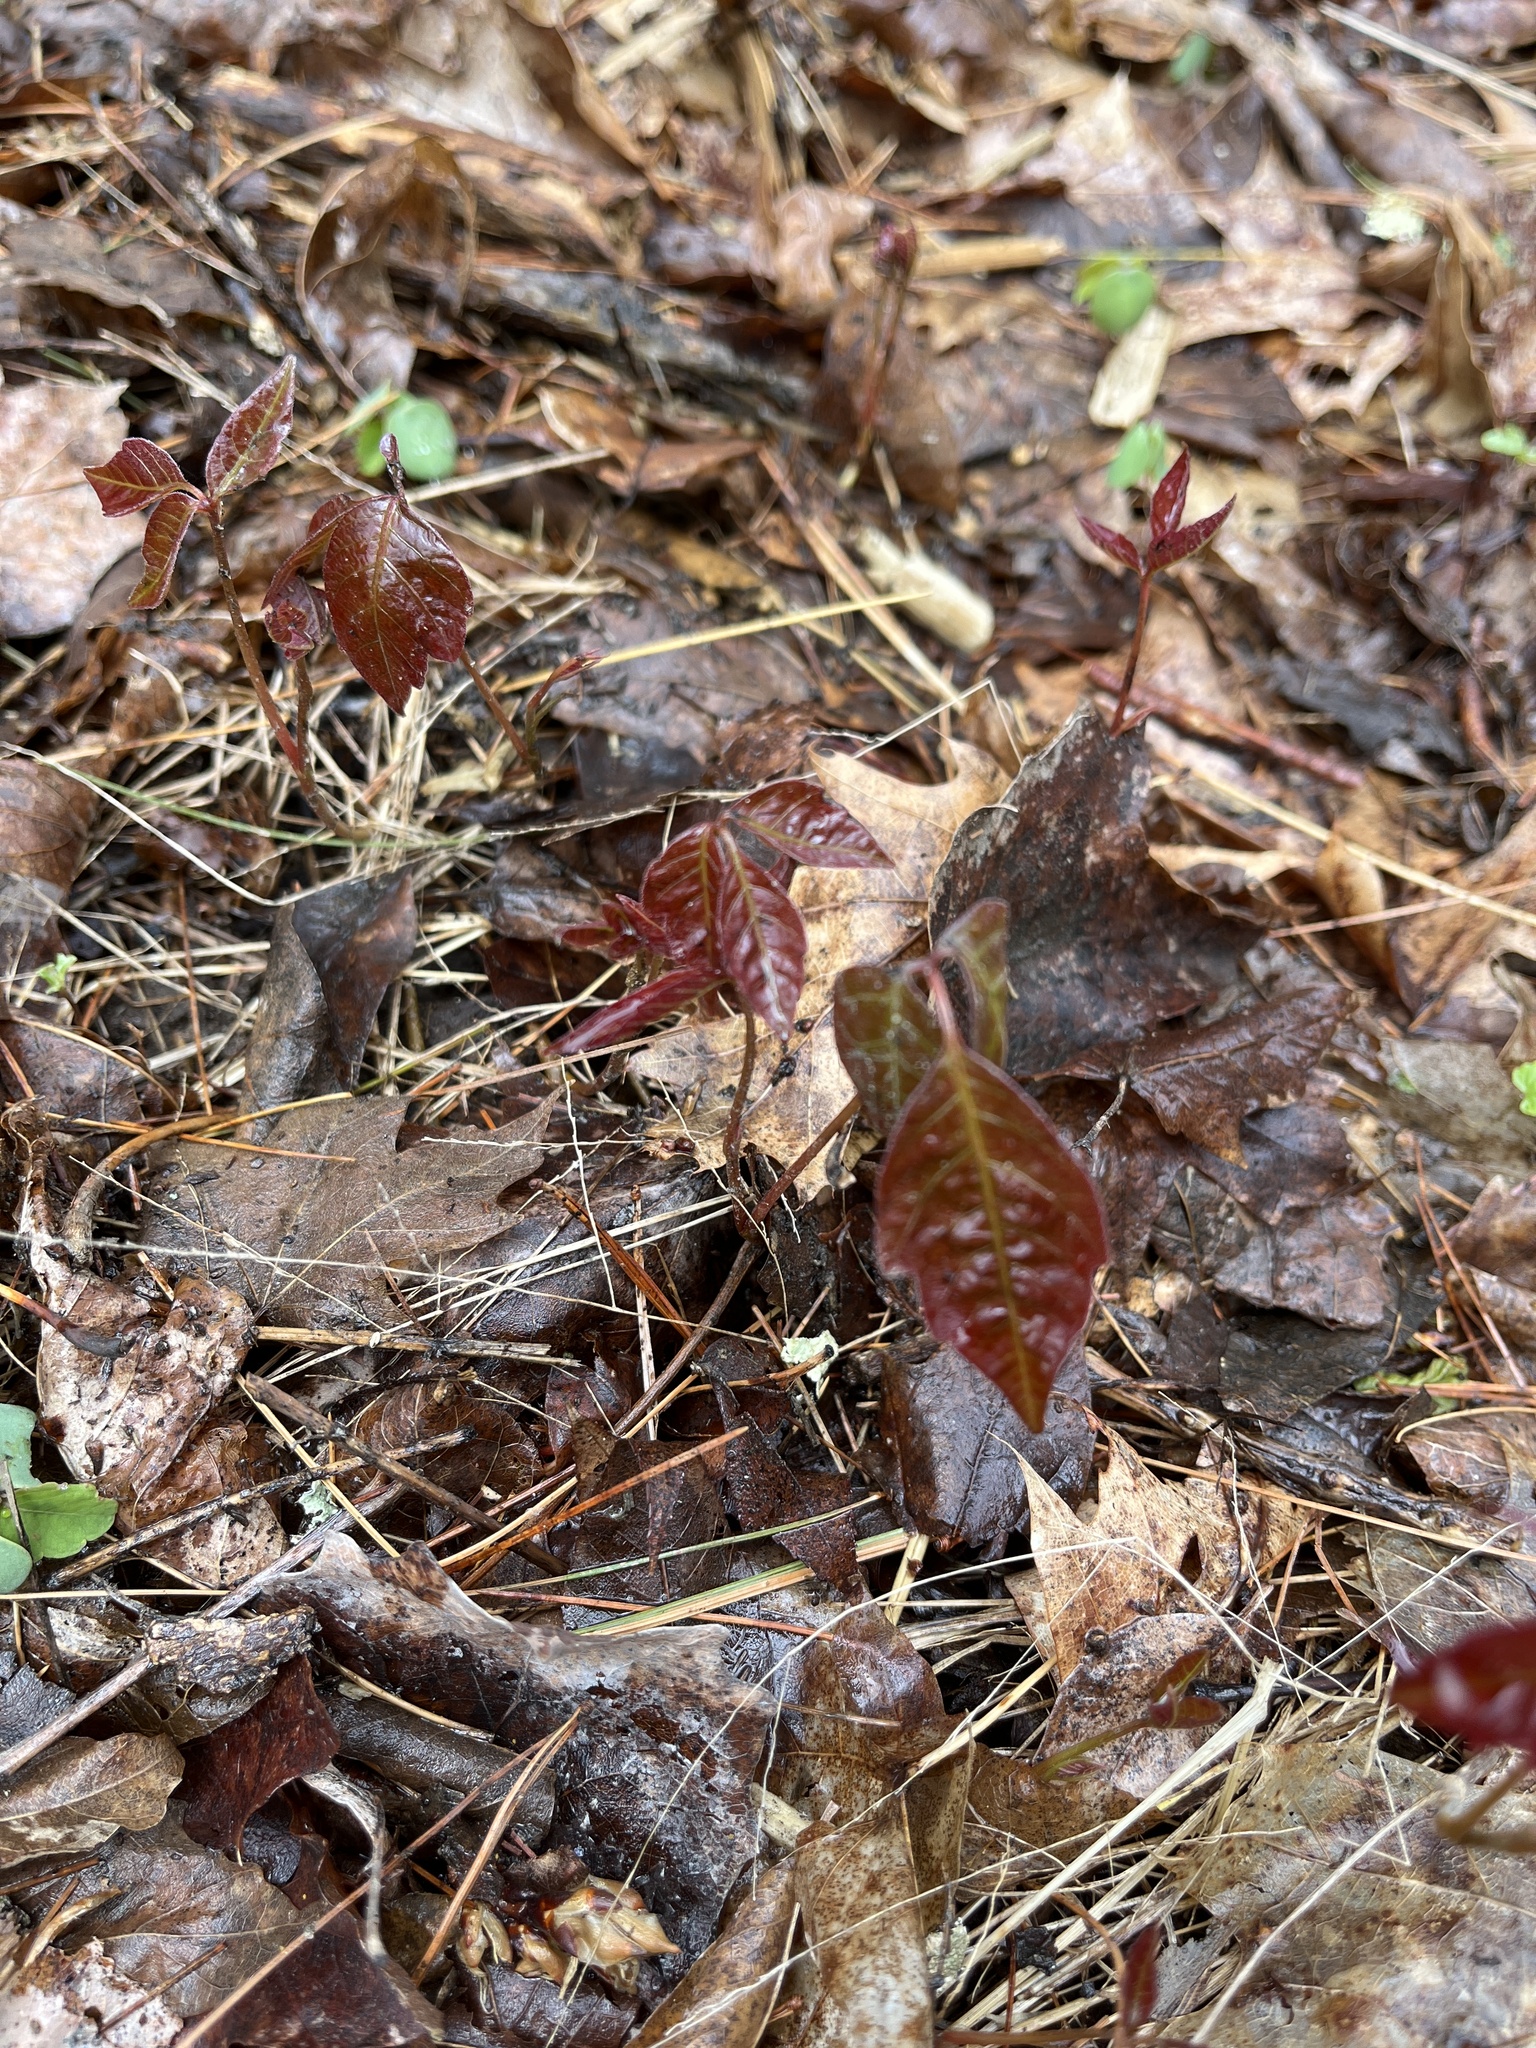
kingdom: Plantae
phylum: Tracheophyta
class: Magnoliopsida
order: Sapindales
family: Anacardiaceae
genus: Toxicodendron
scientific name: Toxicodendron radicans
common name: Poison ivy
